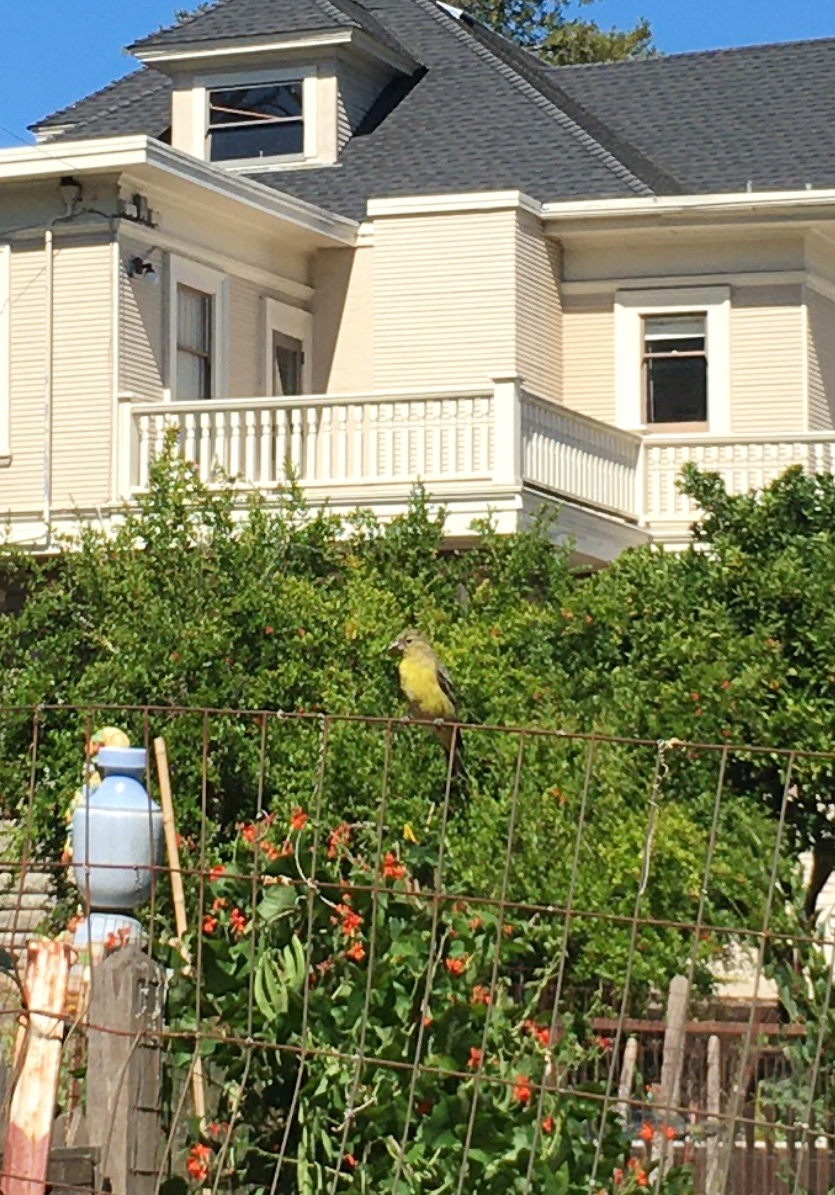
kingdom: Animalia
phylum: Chordata
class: Aves
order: Passeriformes
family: Fringillidae
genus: Spinus
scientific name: Spinus psaltria
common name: Lesser goldfinch
